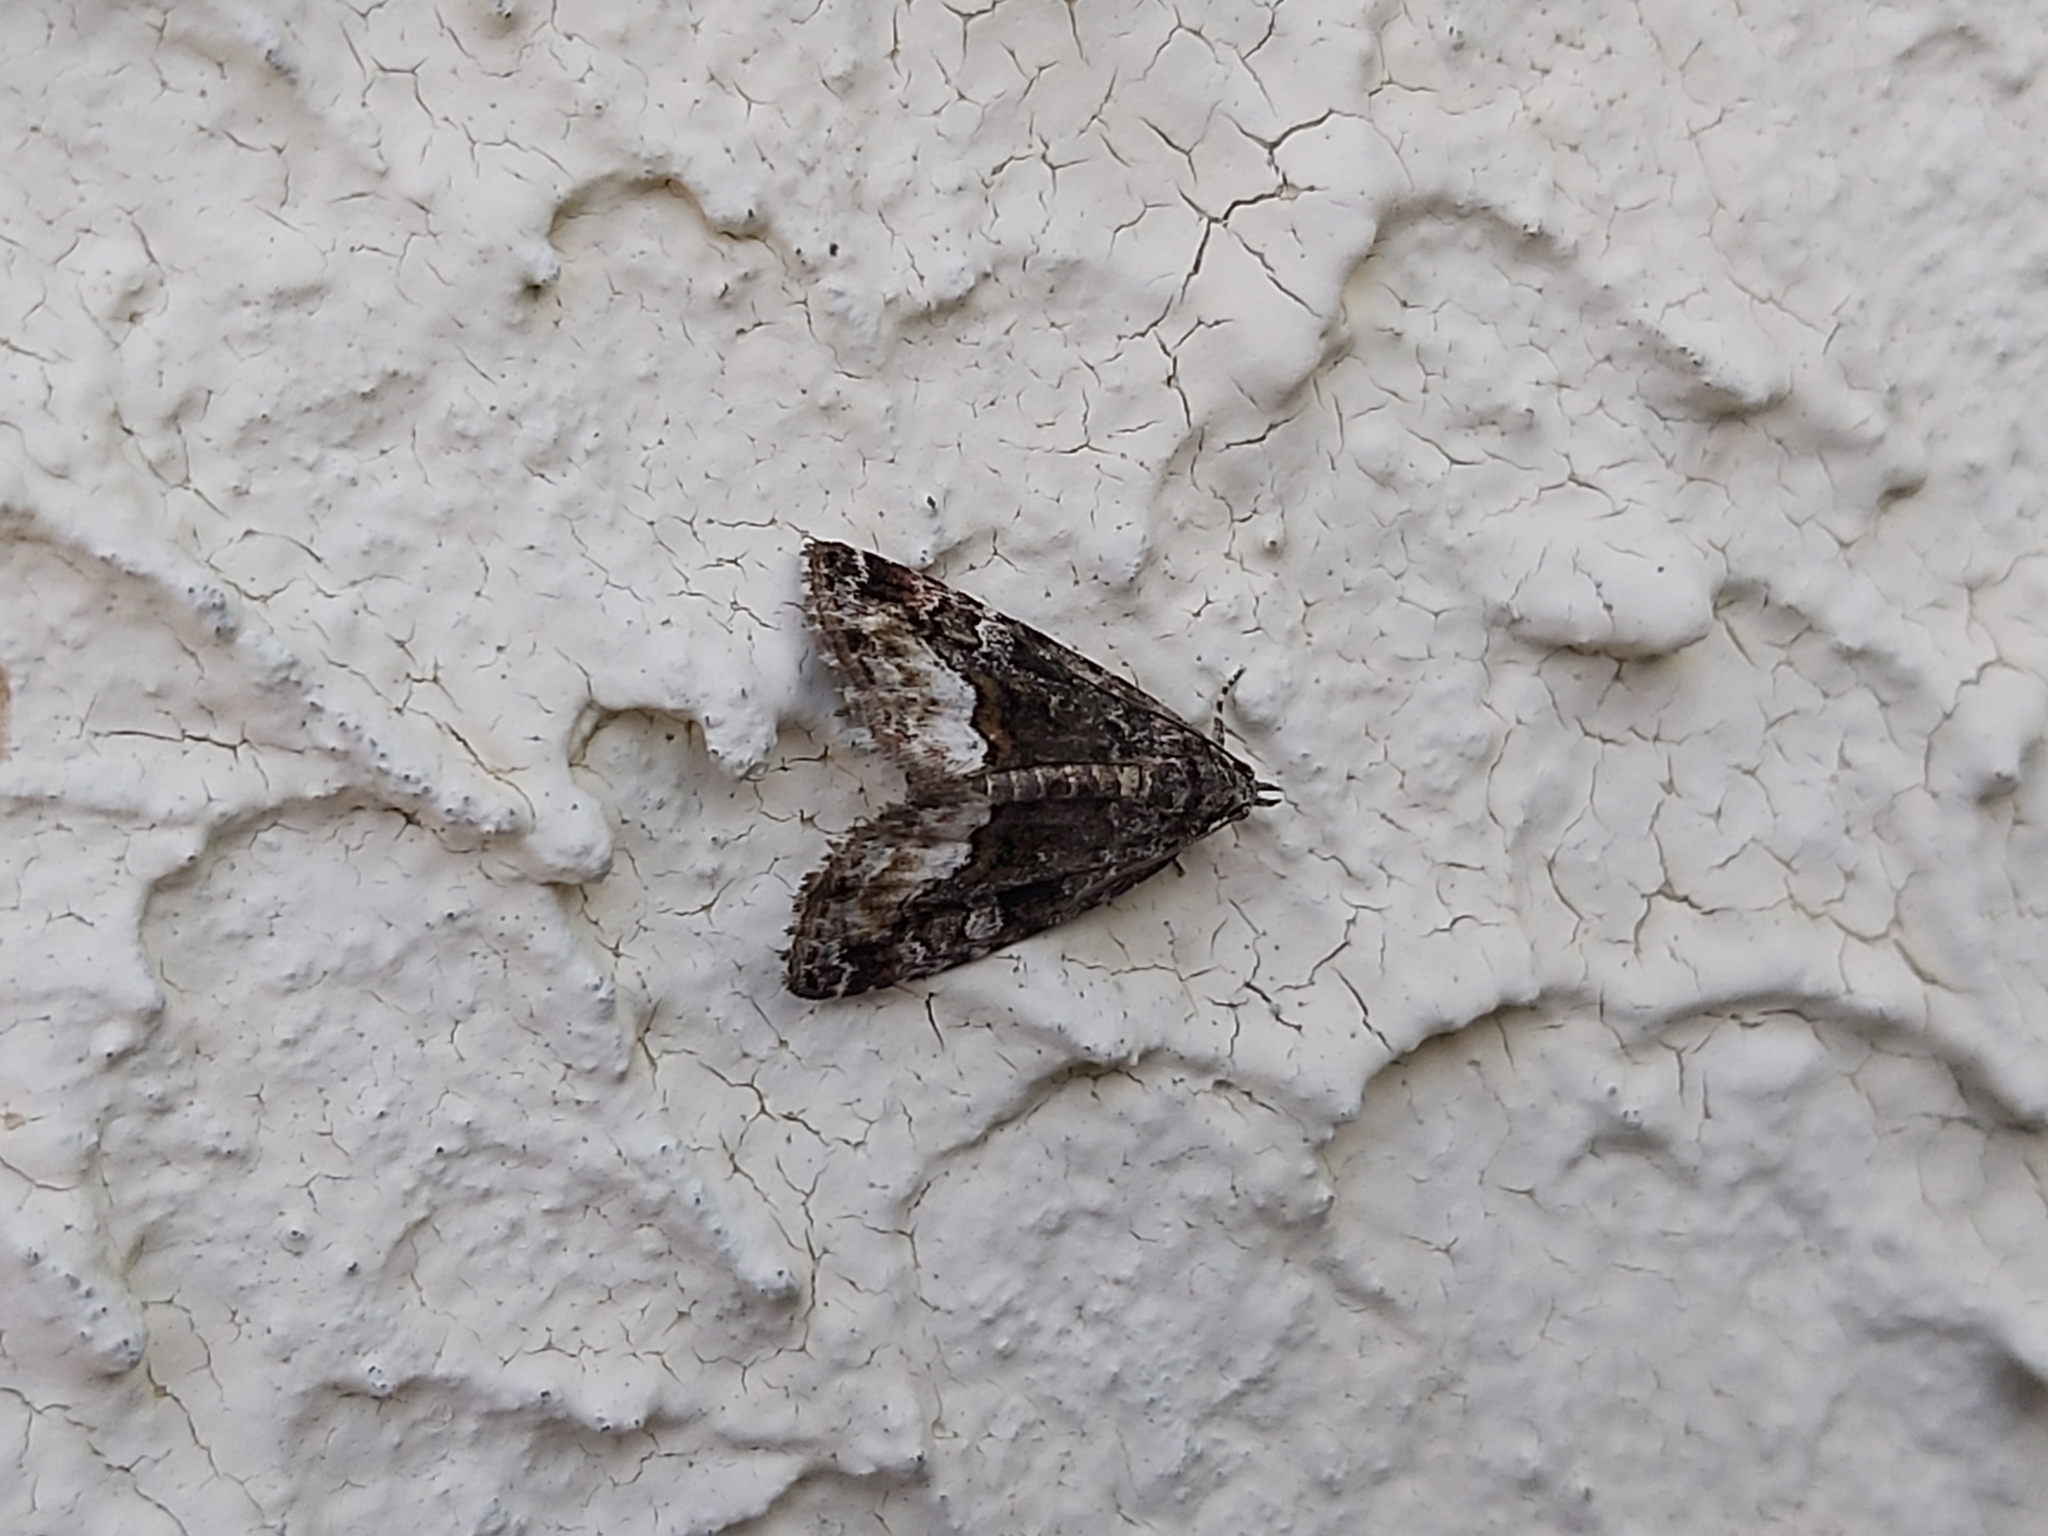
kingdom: Animalia
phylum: Arthropoda
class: Insecta
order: Lepidoptera
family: Noctuidae
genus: Deltote
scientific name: Deltote pygarga
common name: Marbled white spot
